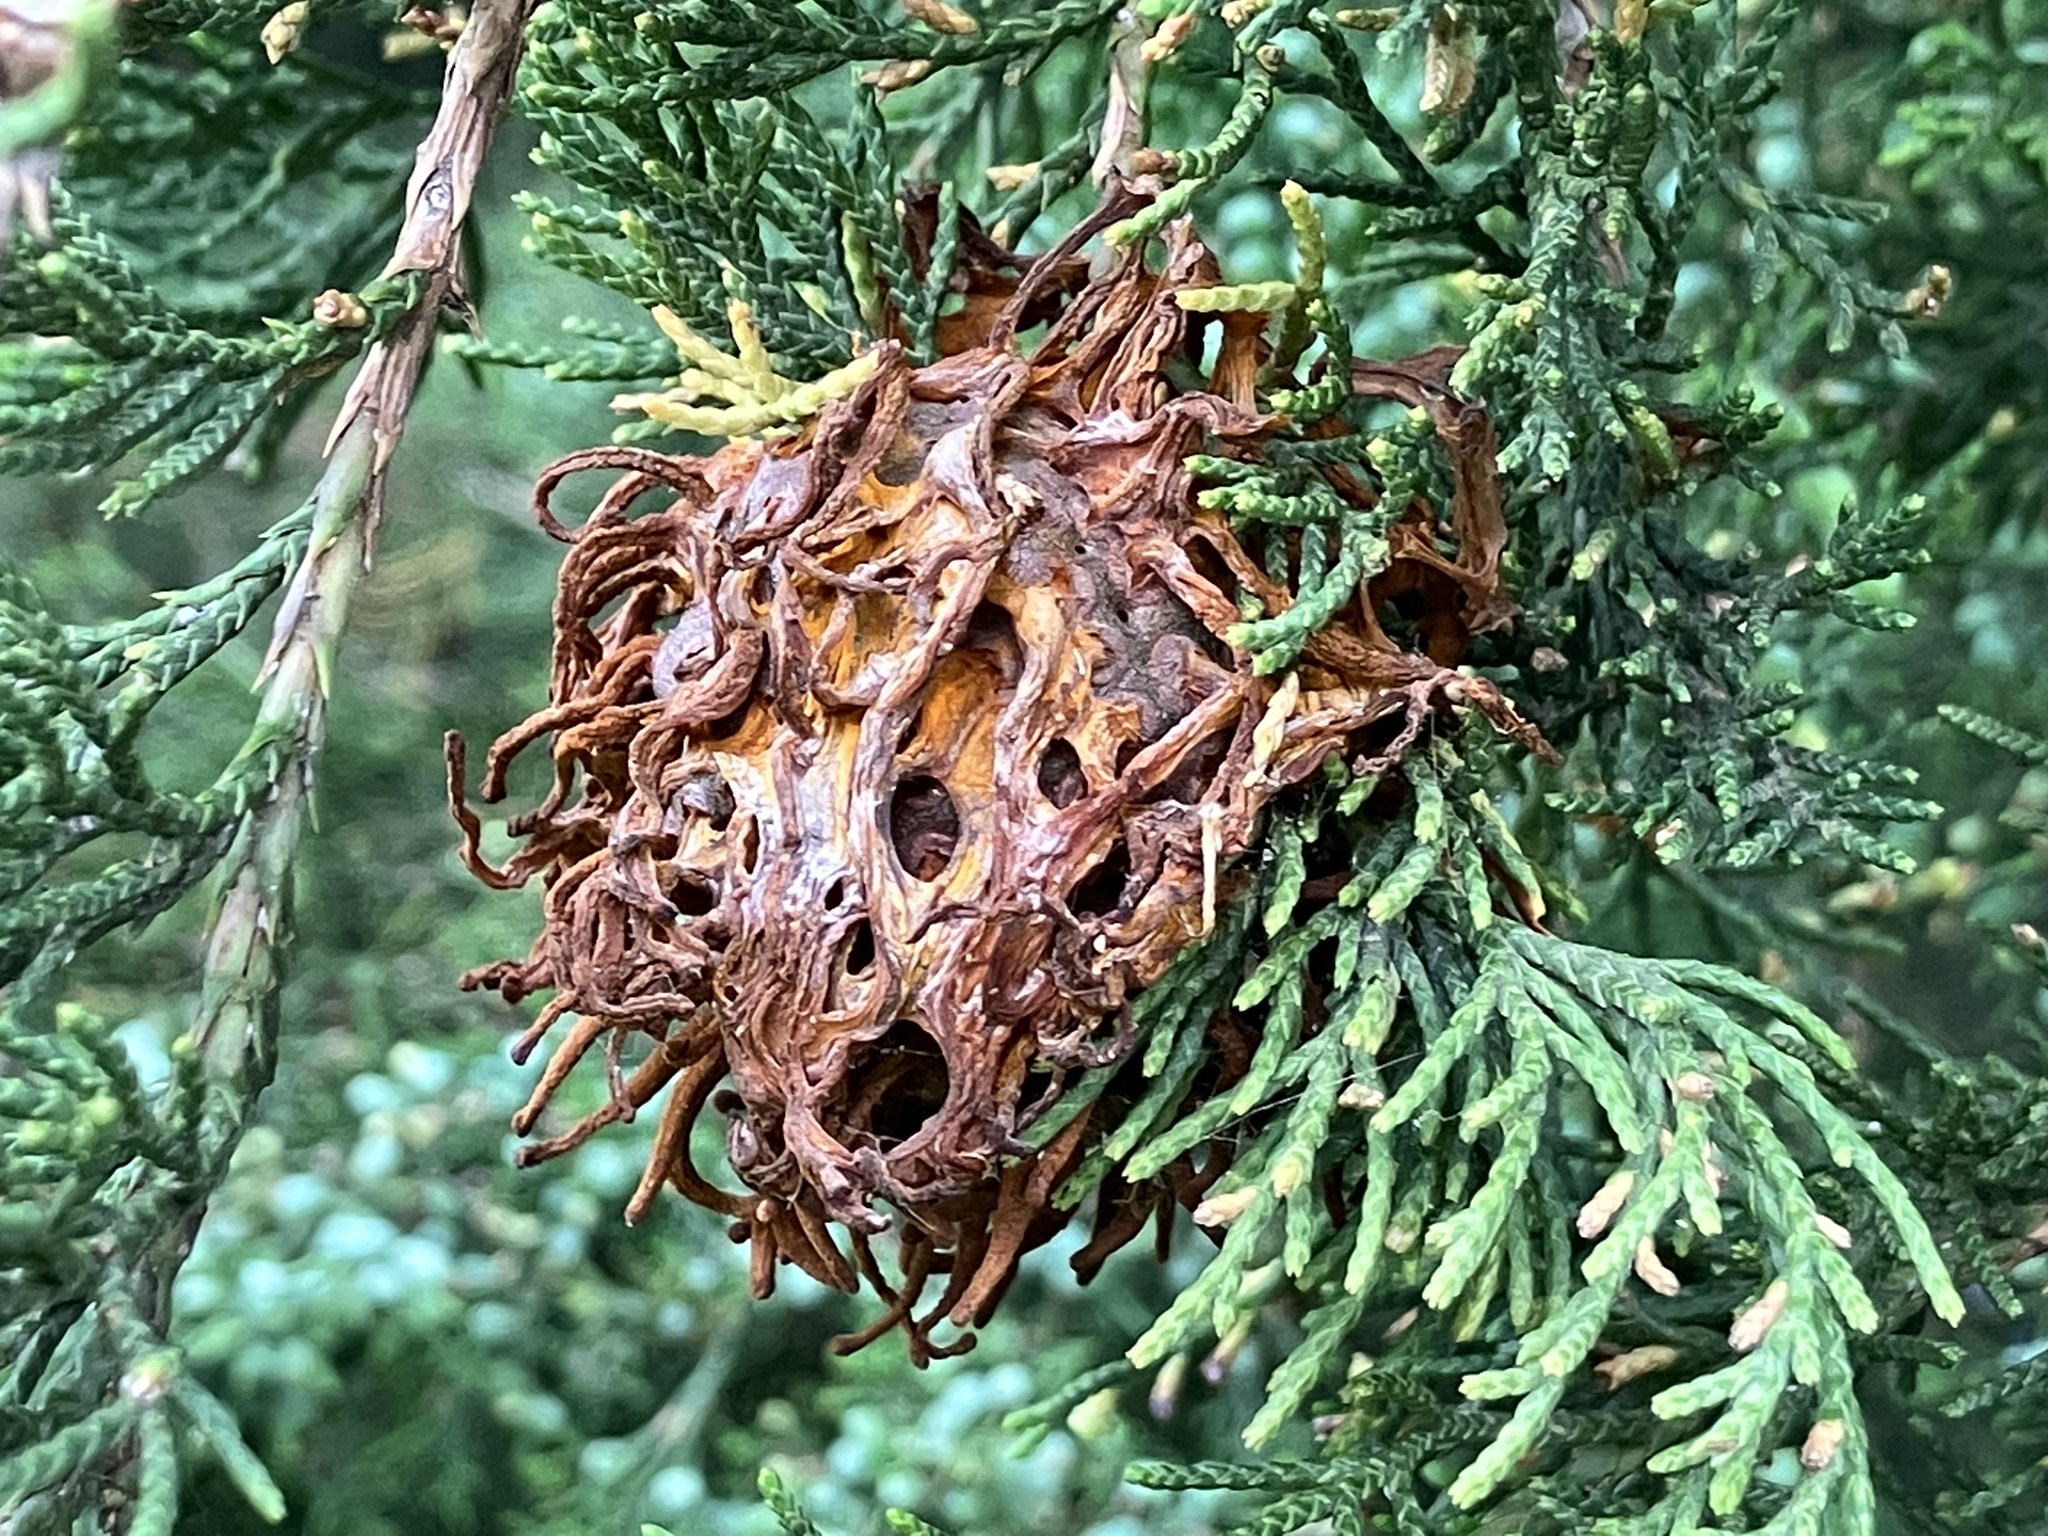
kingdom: Fungi
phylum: Basidiomycota
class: Pucciniomycetes
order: Pucciniales
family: Gymnosporangiaceae
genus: Gymnosporangium
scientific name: Gymnosporangium juniperi-virginianae
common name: Juniper-apple rust
